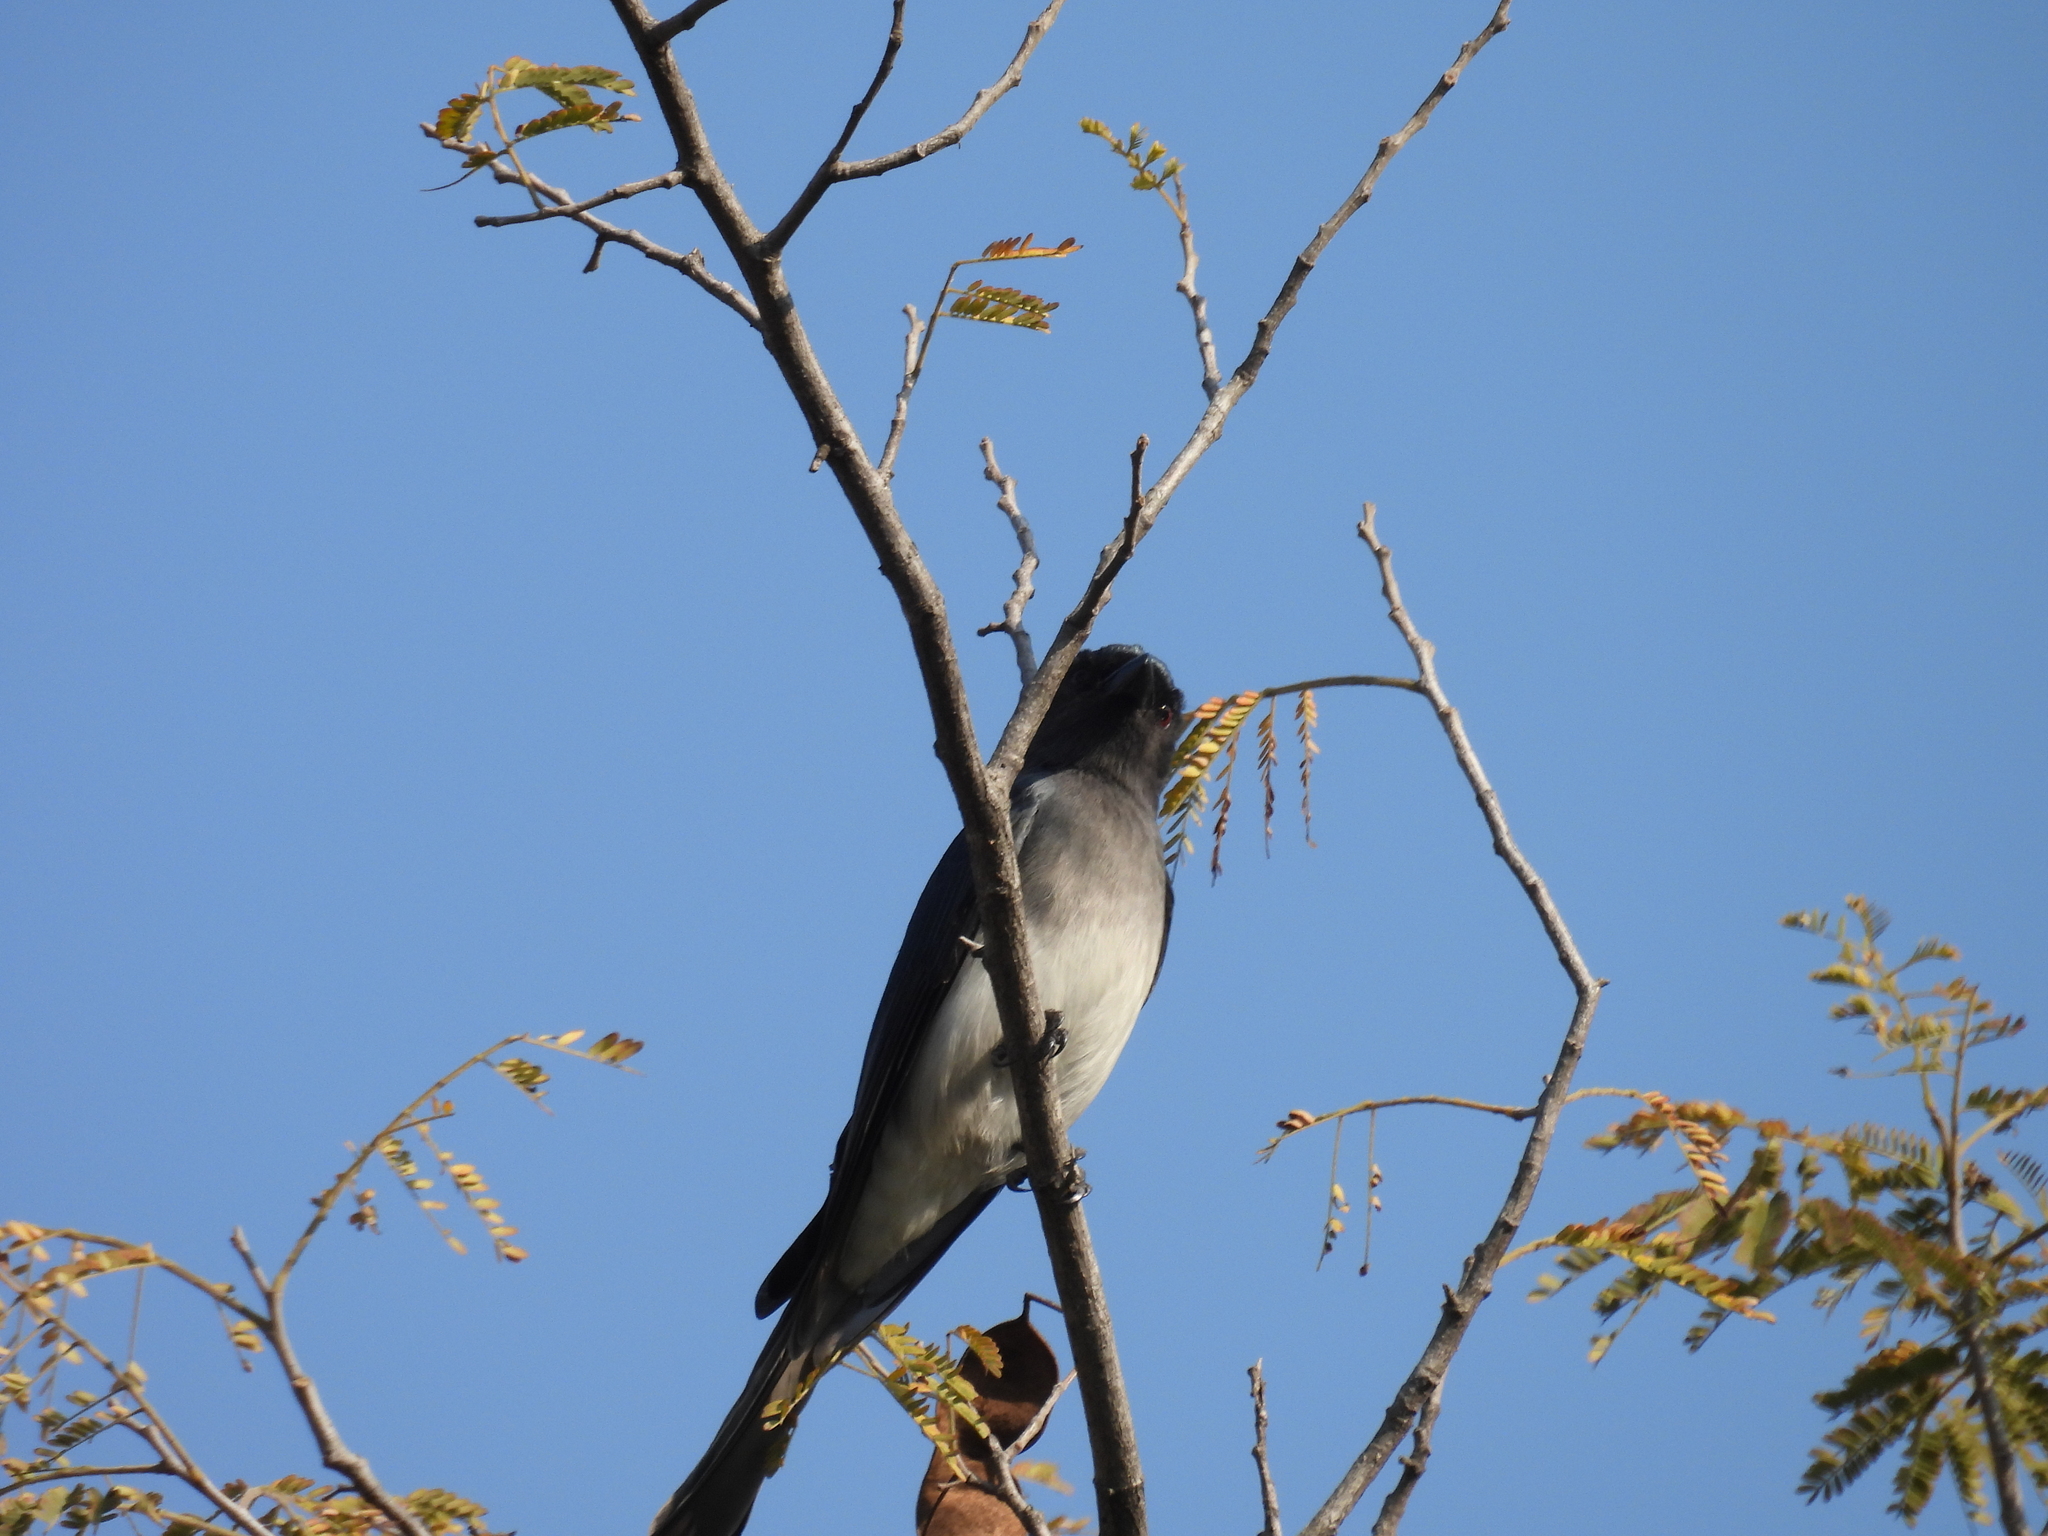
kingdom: Animalia
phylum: Chordata
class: Aves
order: Passeriformes
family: Dicruridae
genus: Dicrurus
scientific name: Dicrurus caerulescens
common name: White-bellied drongo
